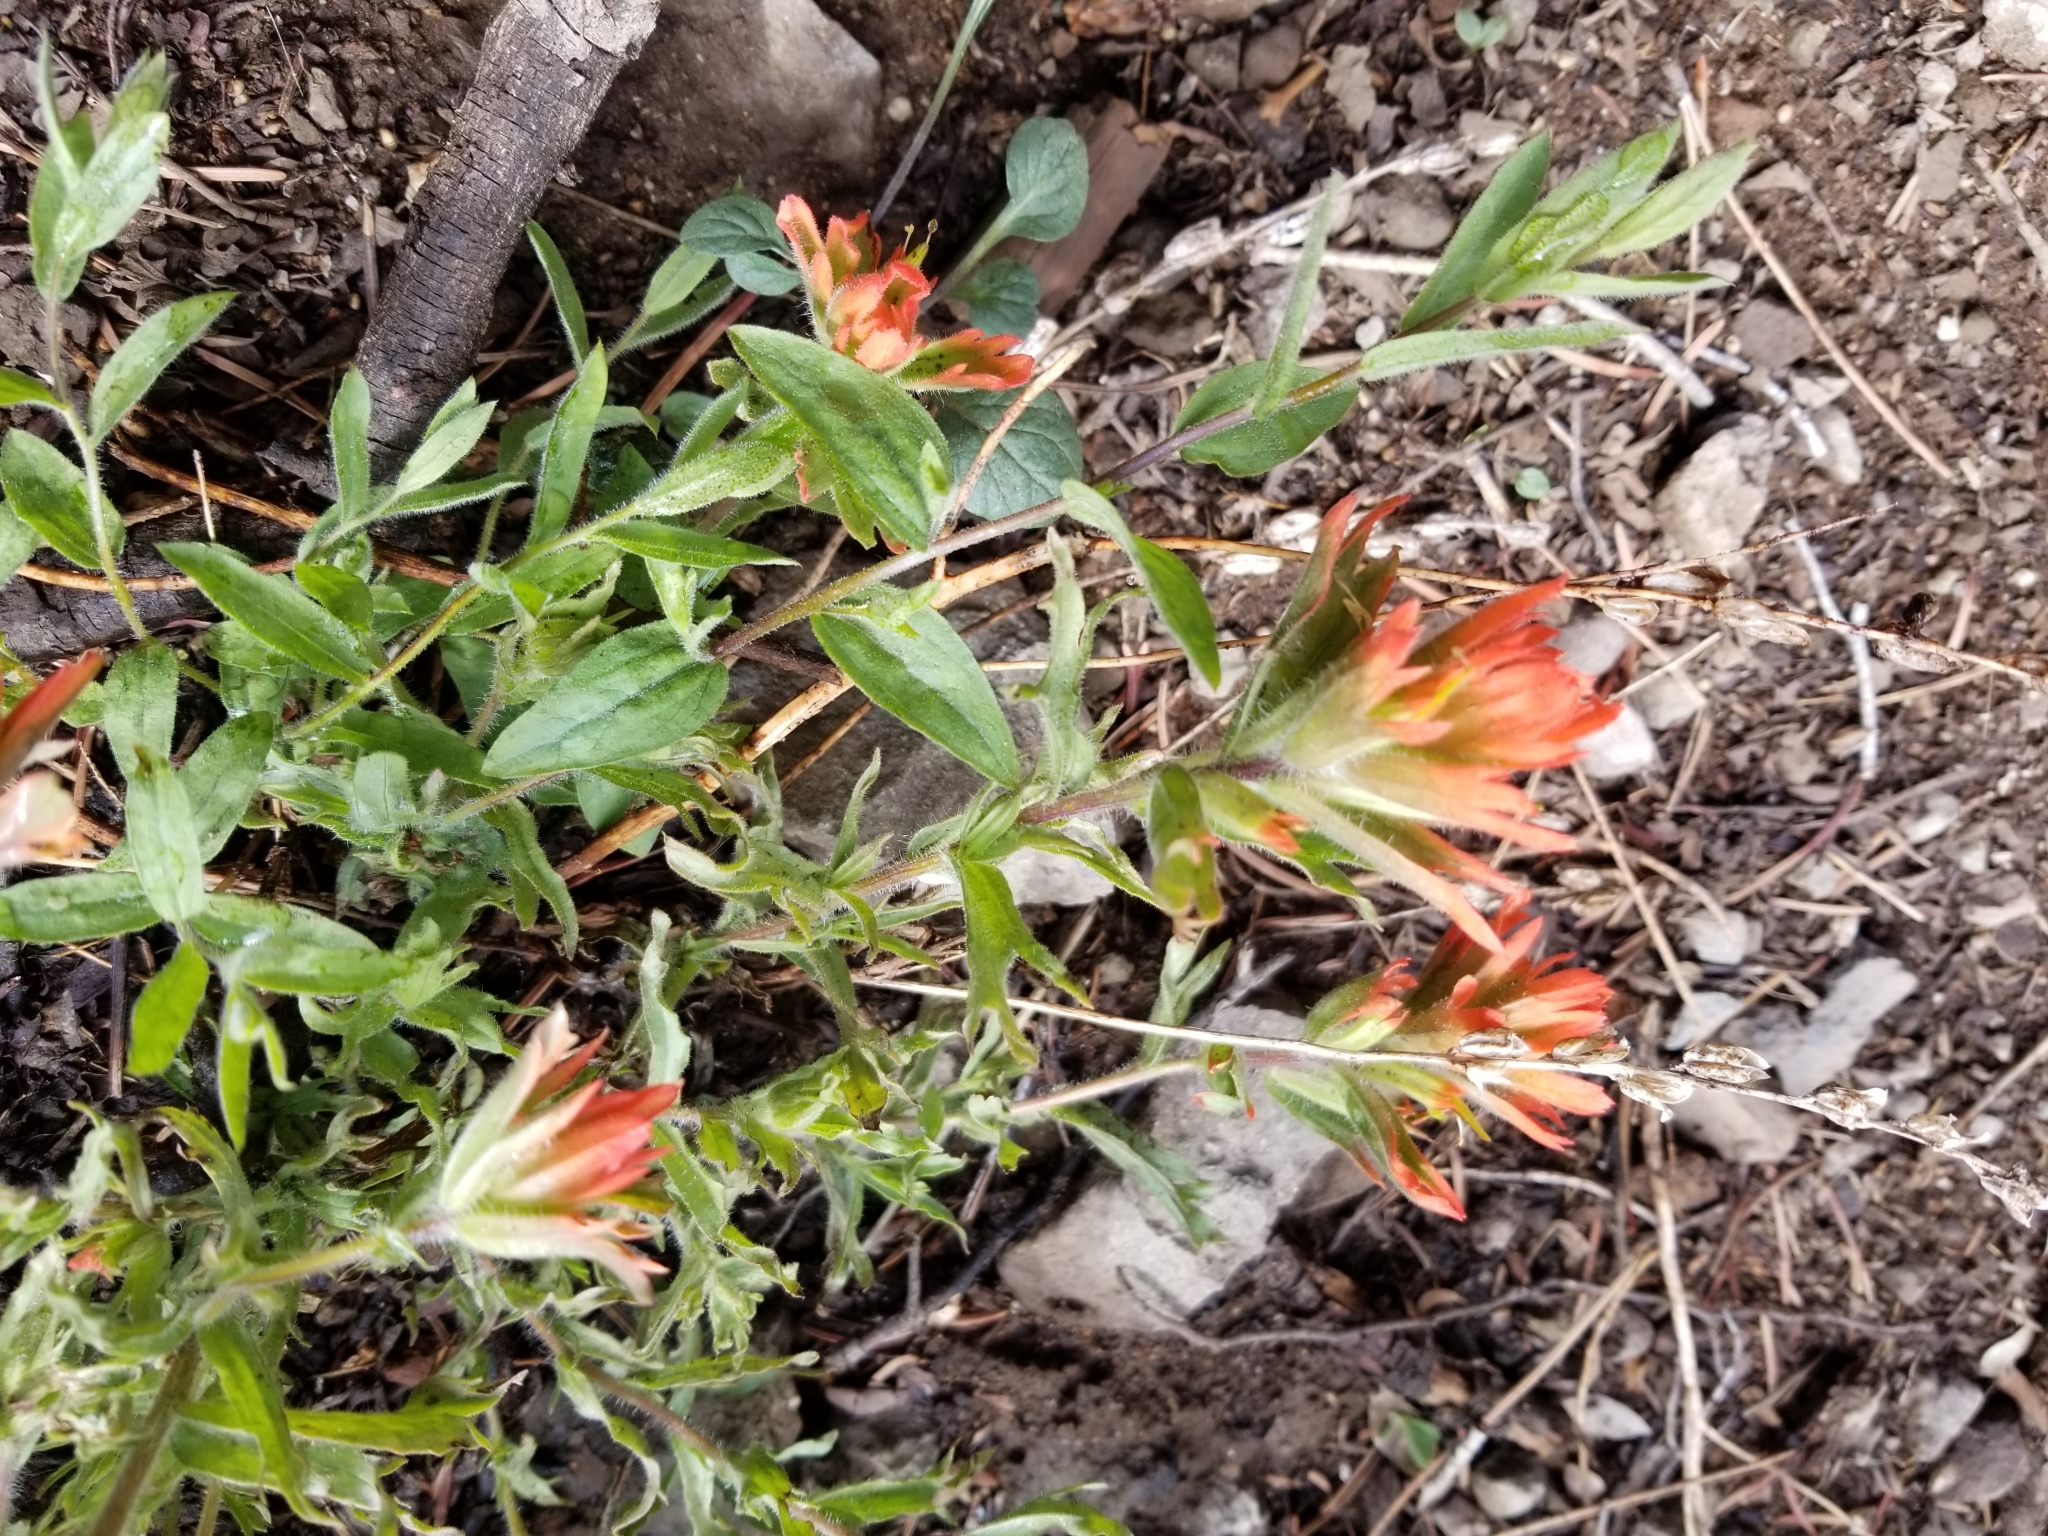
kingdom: Plantae
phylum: Tracheophyta
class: Magnoliopsida
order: Lamiales
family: Orobanchaceae
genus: Castilleja
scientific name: Castilleja applegatei
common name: Wavy-leaf paintbrush
